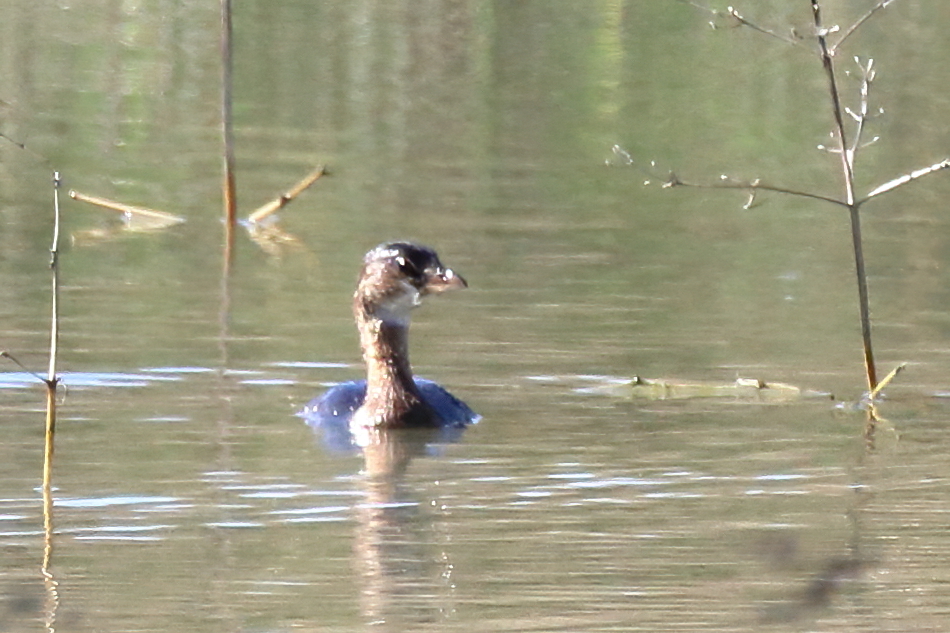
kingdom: Animalia
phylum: Chordata
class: Aves
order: Podicipediformes
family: Podicipedidae
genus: Podilymbus
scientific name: Podilymbus podiceps
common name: Pied-billed grebe
